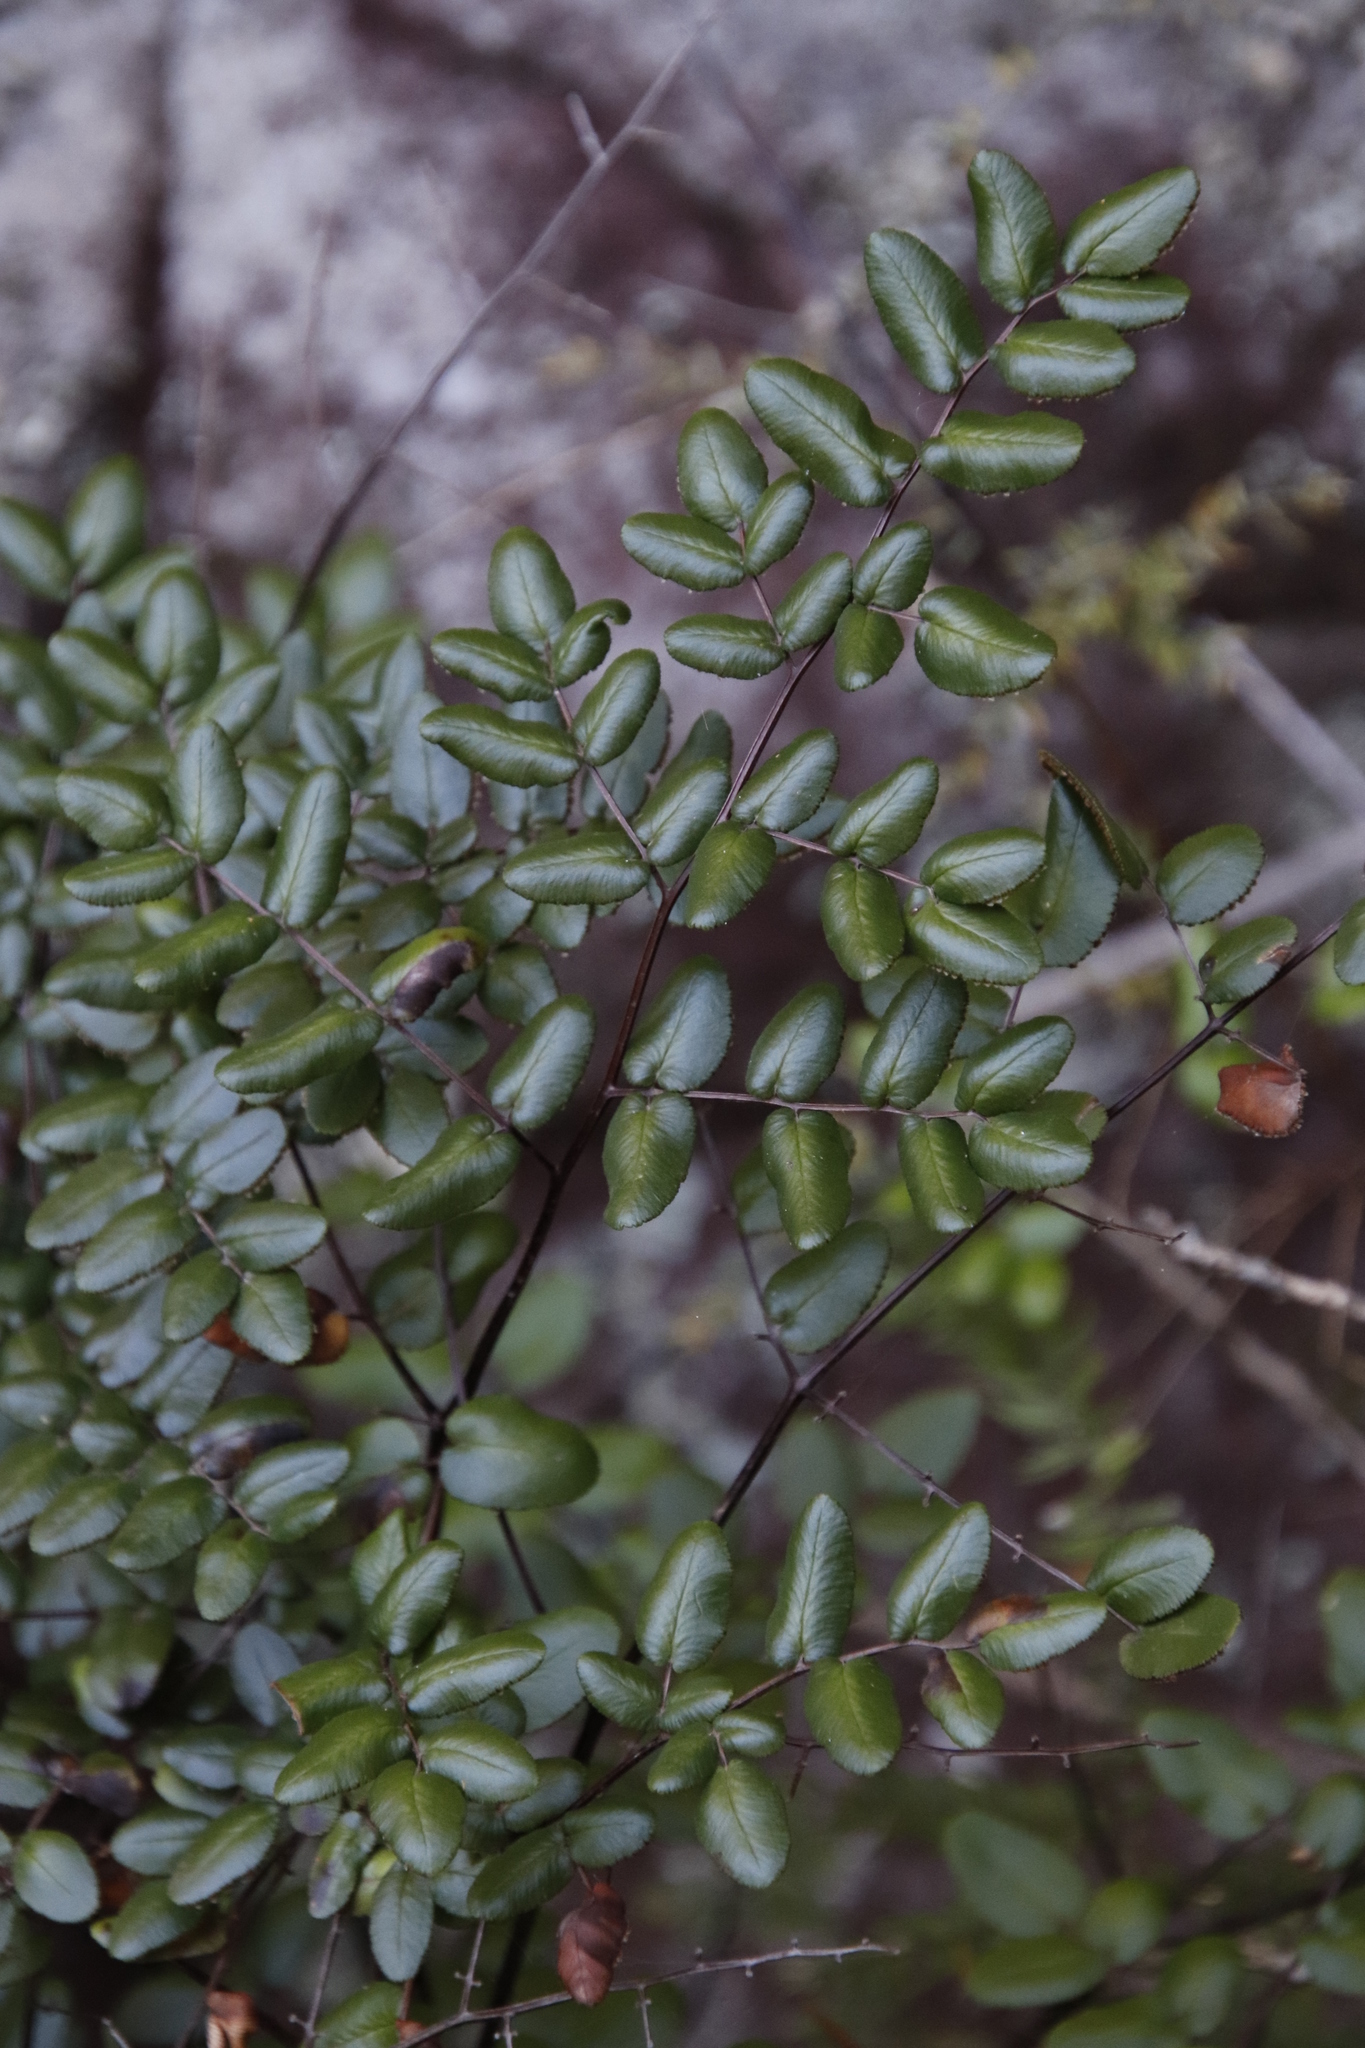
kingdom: Plantae
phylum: Tracheophyta
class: Polypodiopsida
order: Polypodiales
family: Pteridaceae
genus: Pellaea
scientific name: Pellaea pteroides
